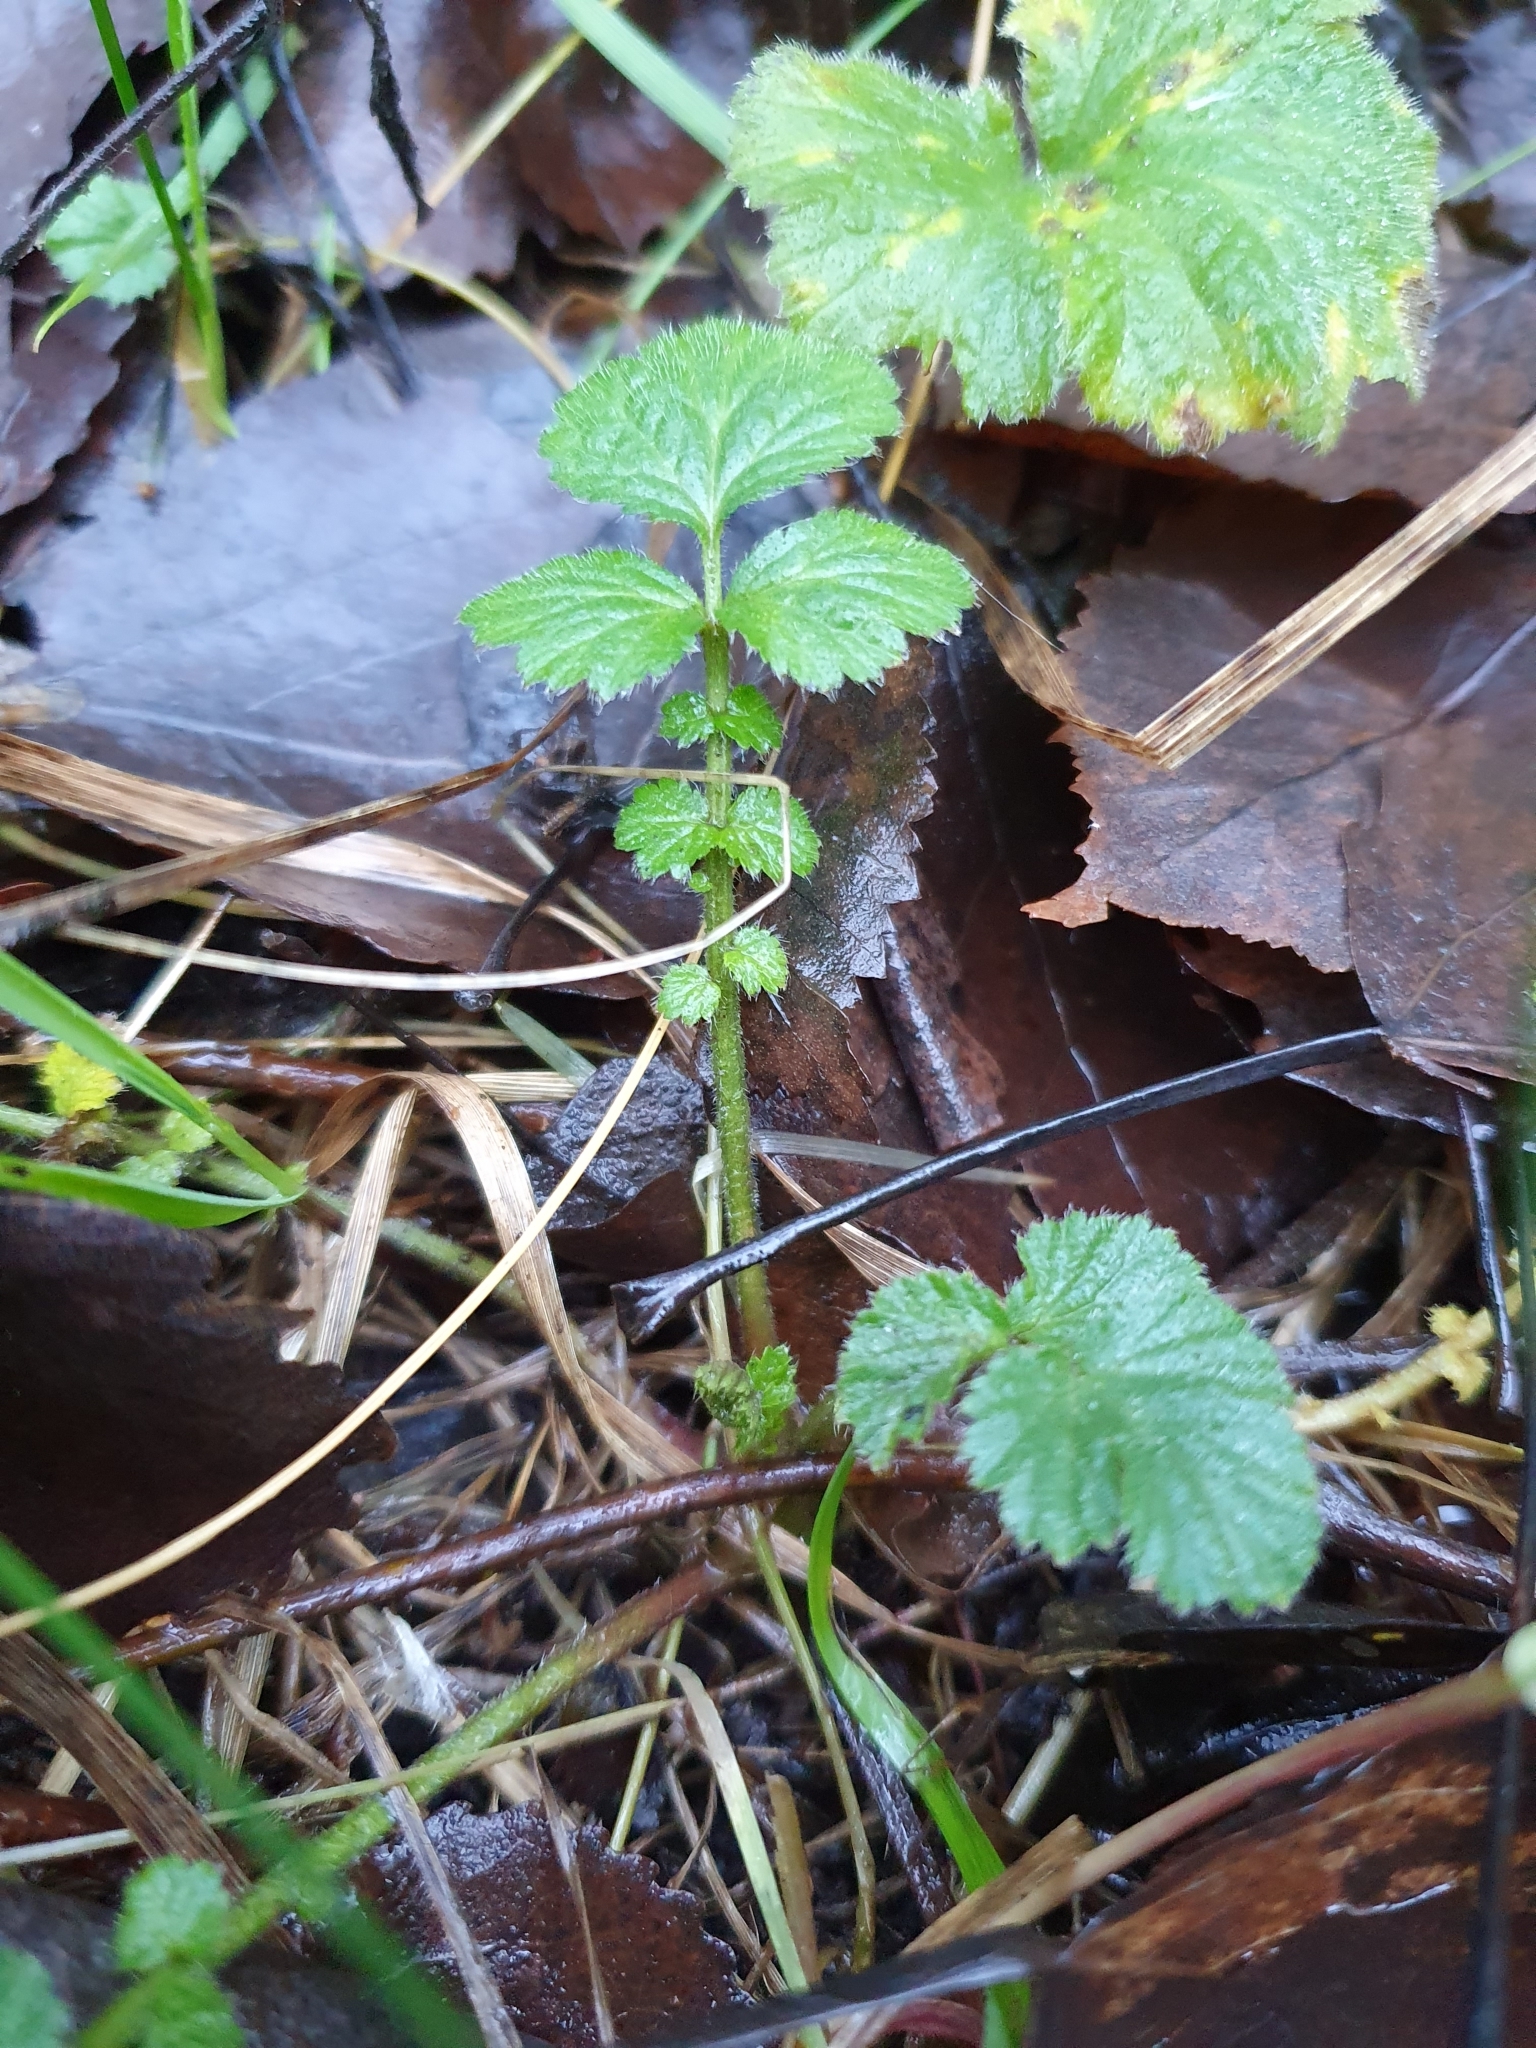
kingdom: Plantae
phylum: Tracheophyta
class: Magnoliopsida
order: Rosales
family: Rosaceae
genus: Geum
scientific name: Geum urbanum
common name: Wood avens
